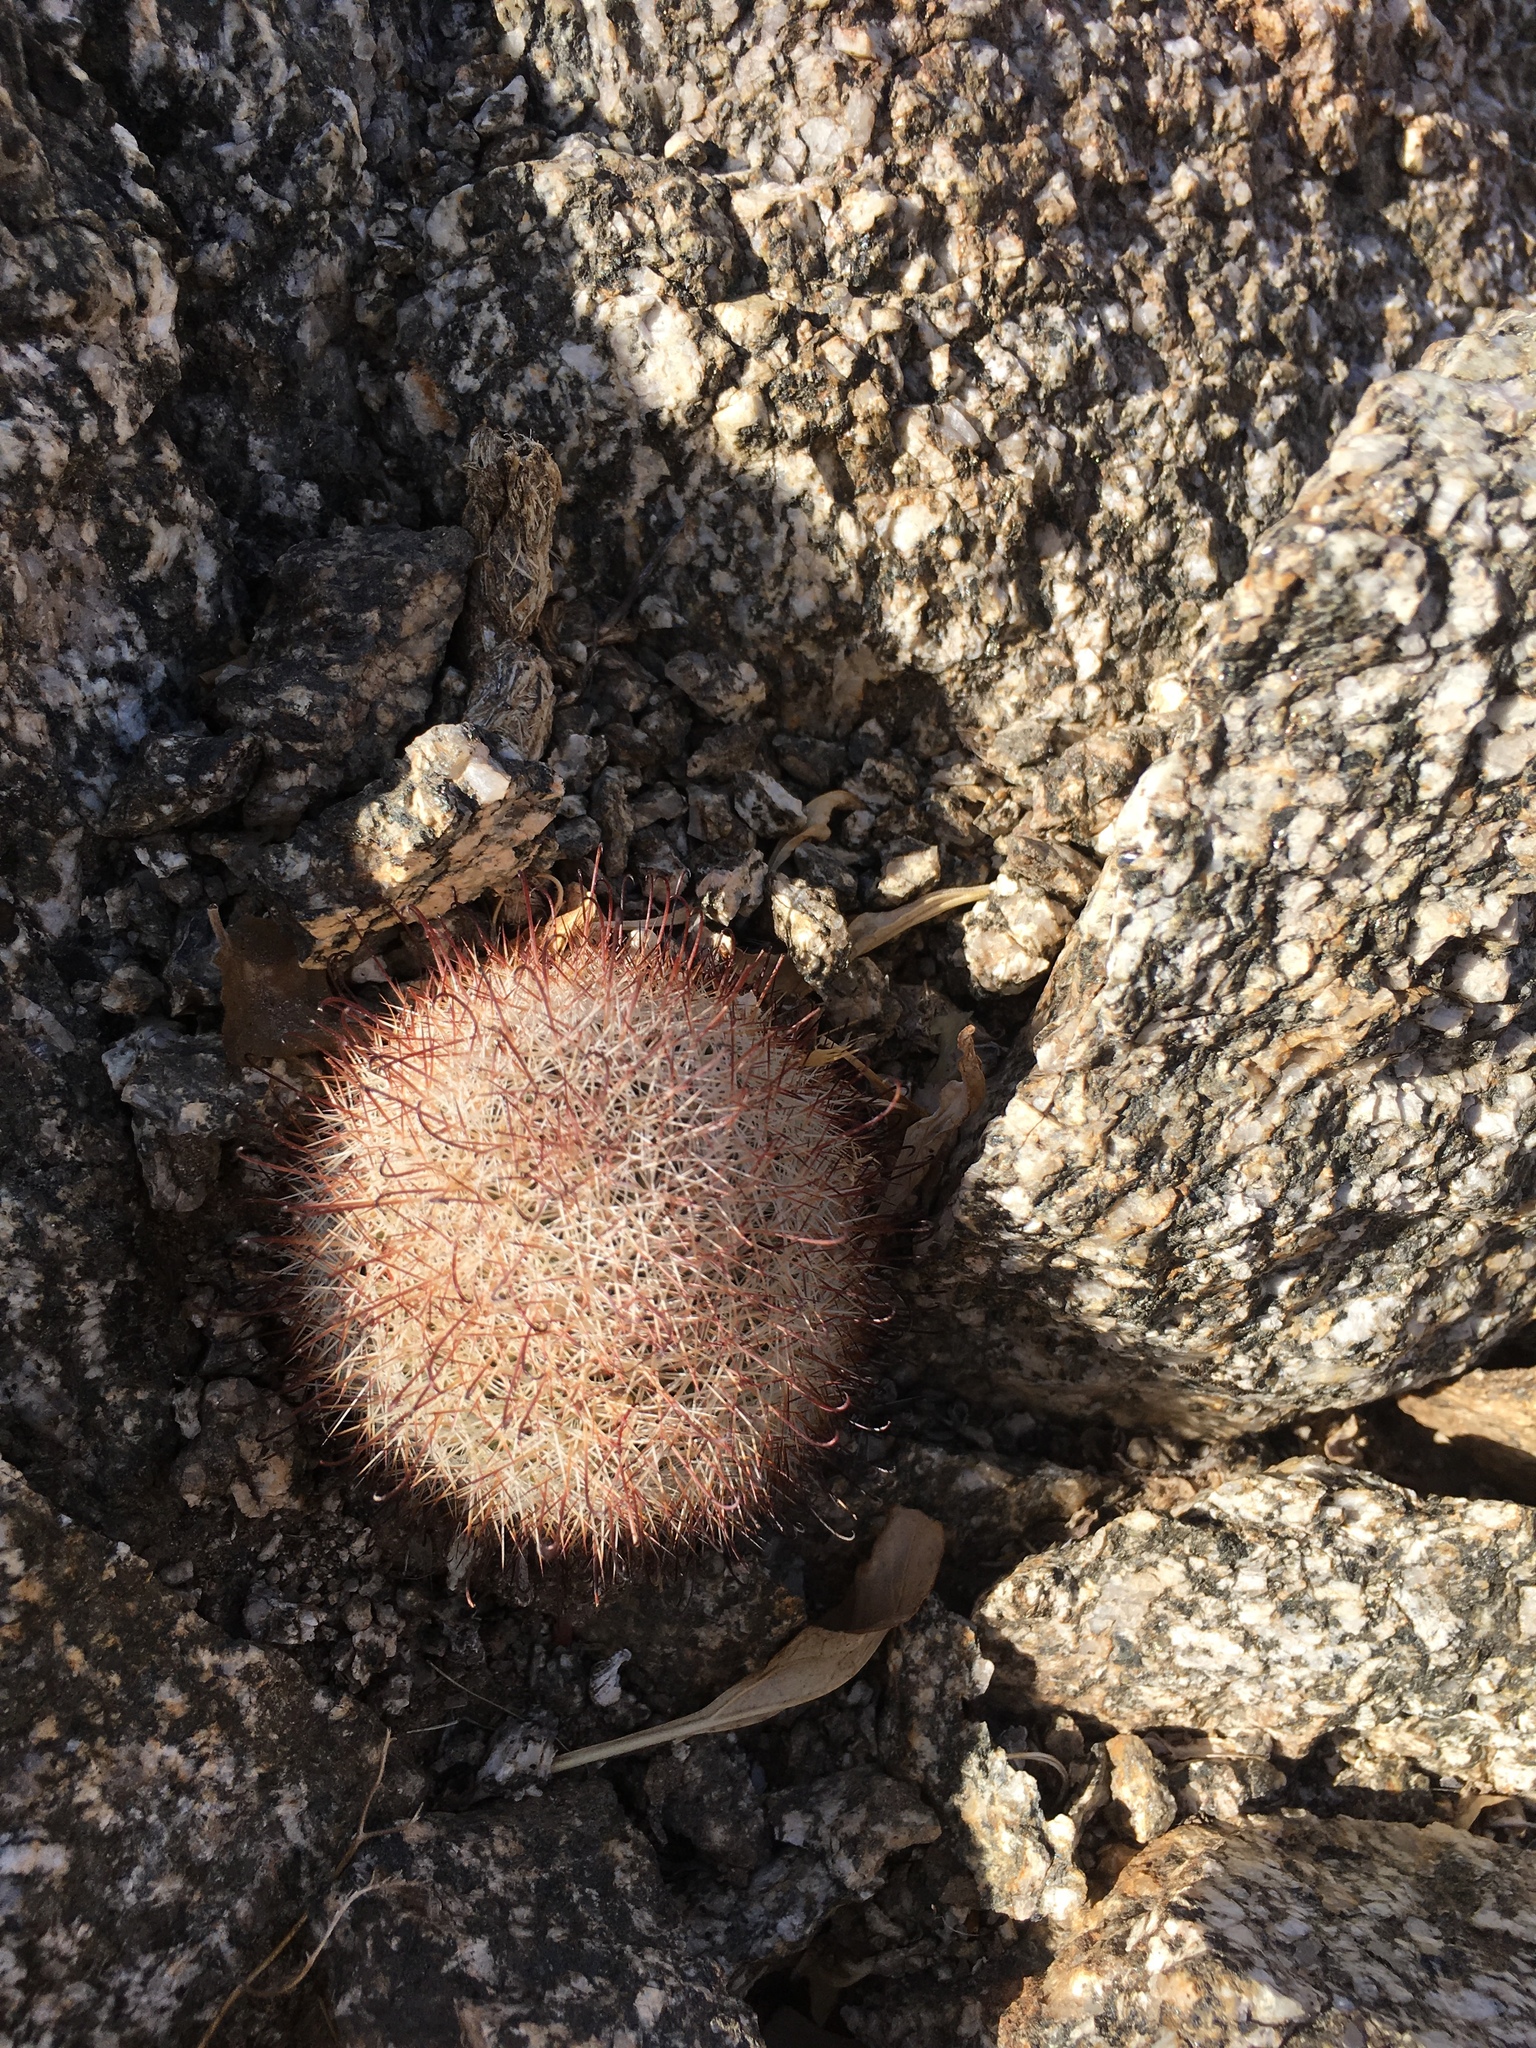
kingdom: Plantae
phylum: Tracheophyta
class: Magnoliopsida
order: Caryophyllales
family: Cactaceae
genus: Cochemiea
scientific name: Cochemiea dioica
